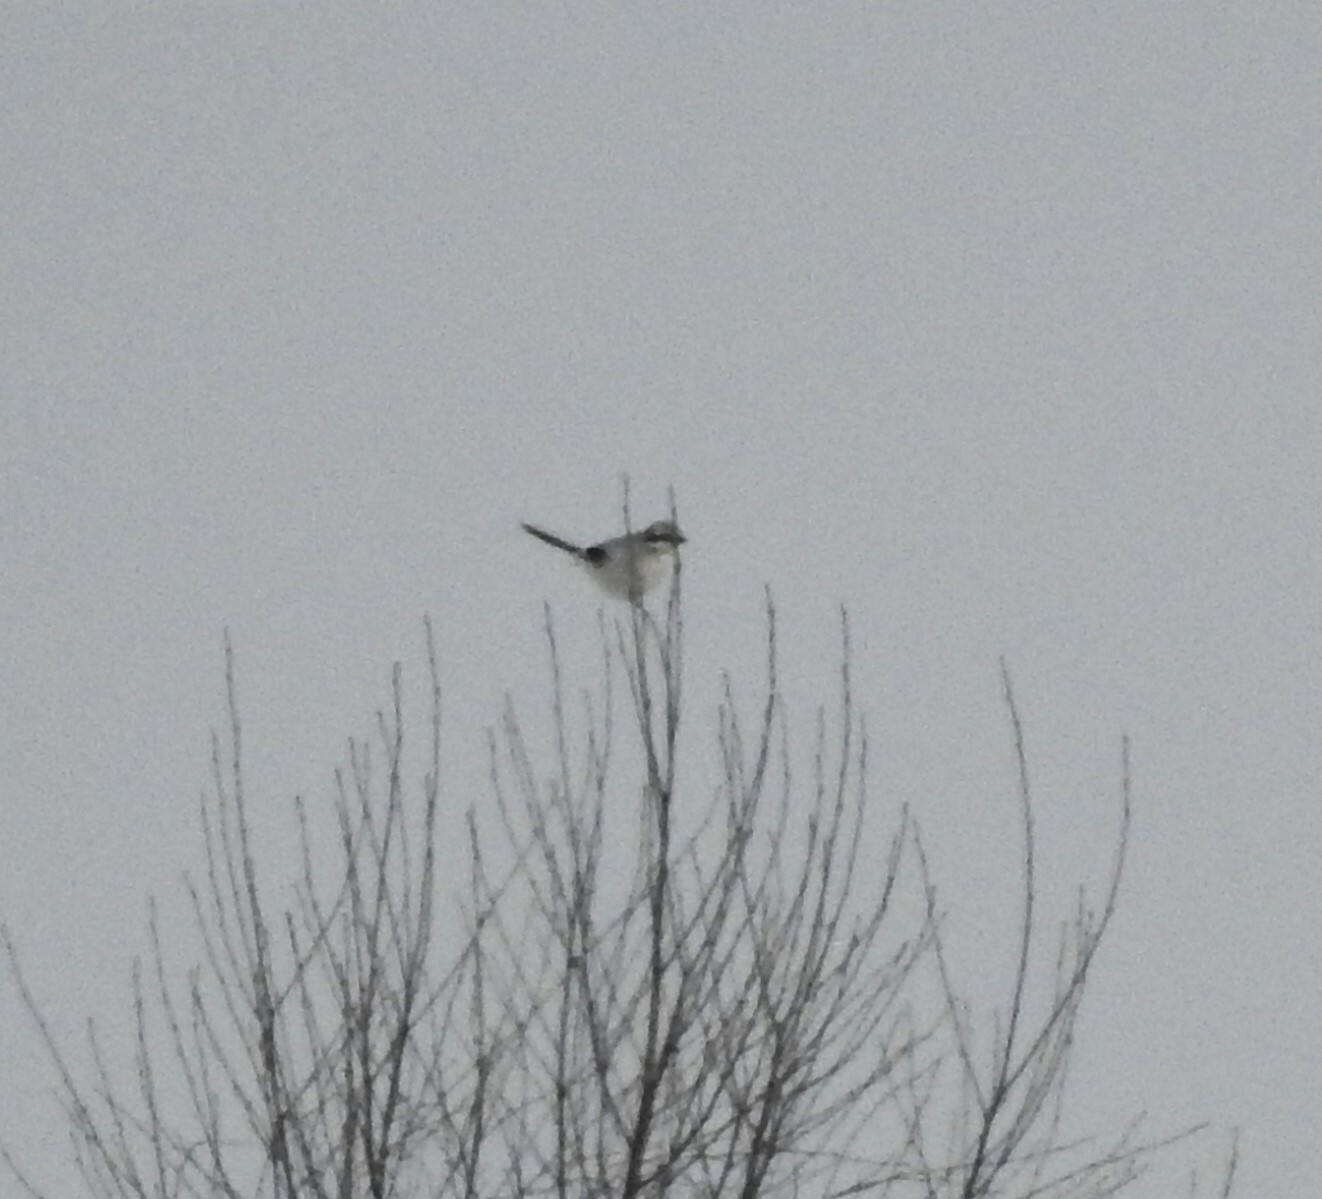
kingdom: Animalia
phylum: Chordata
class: Aves
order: Passeriformes
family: Laniidae
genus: Lanius
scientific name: Lanius excubitor
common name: Great grey shrike
